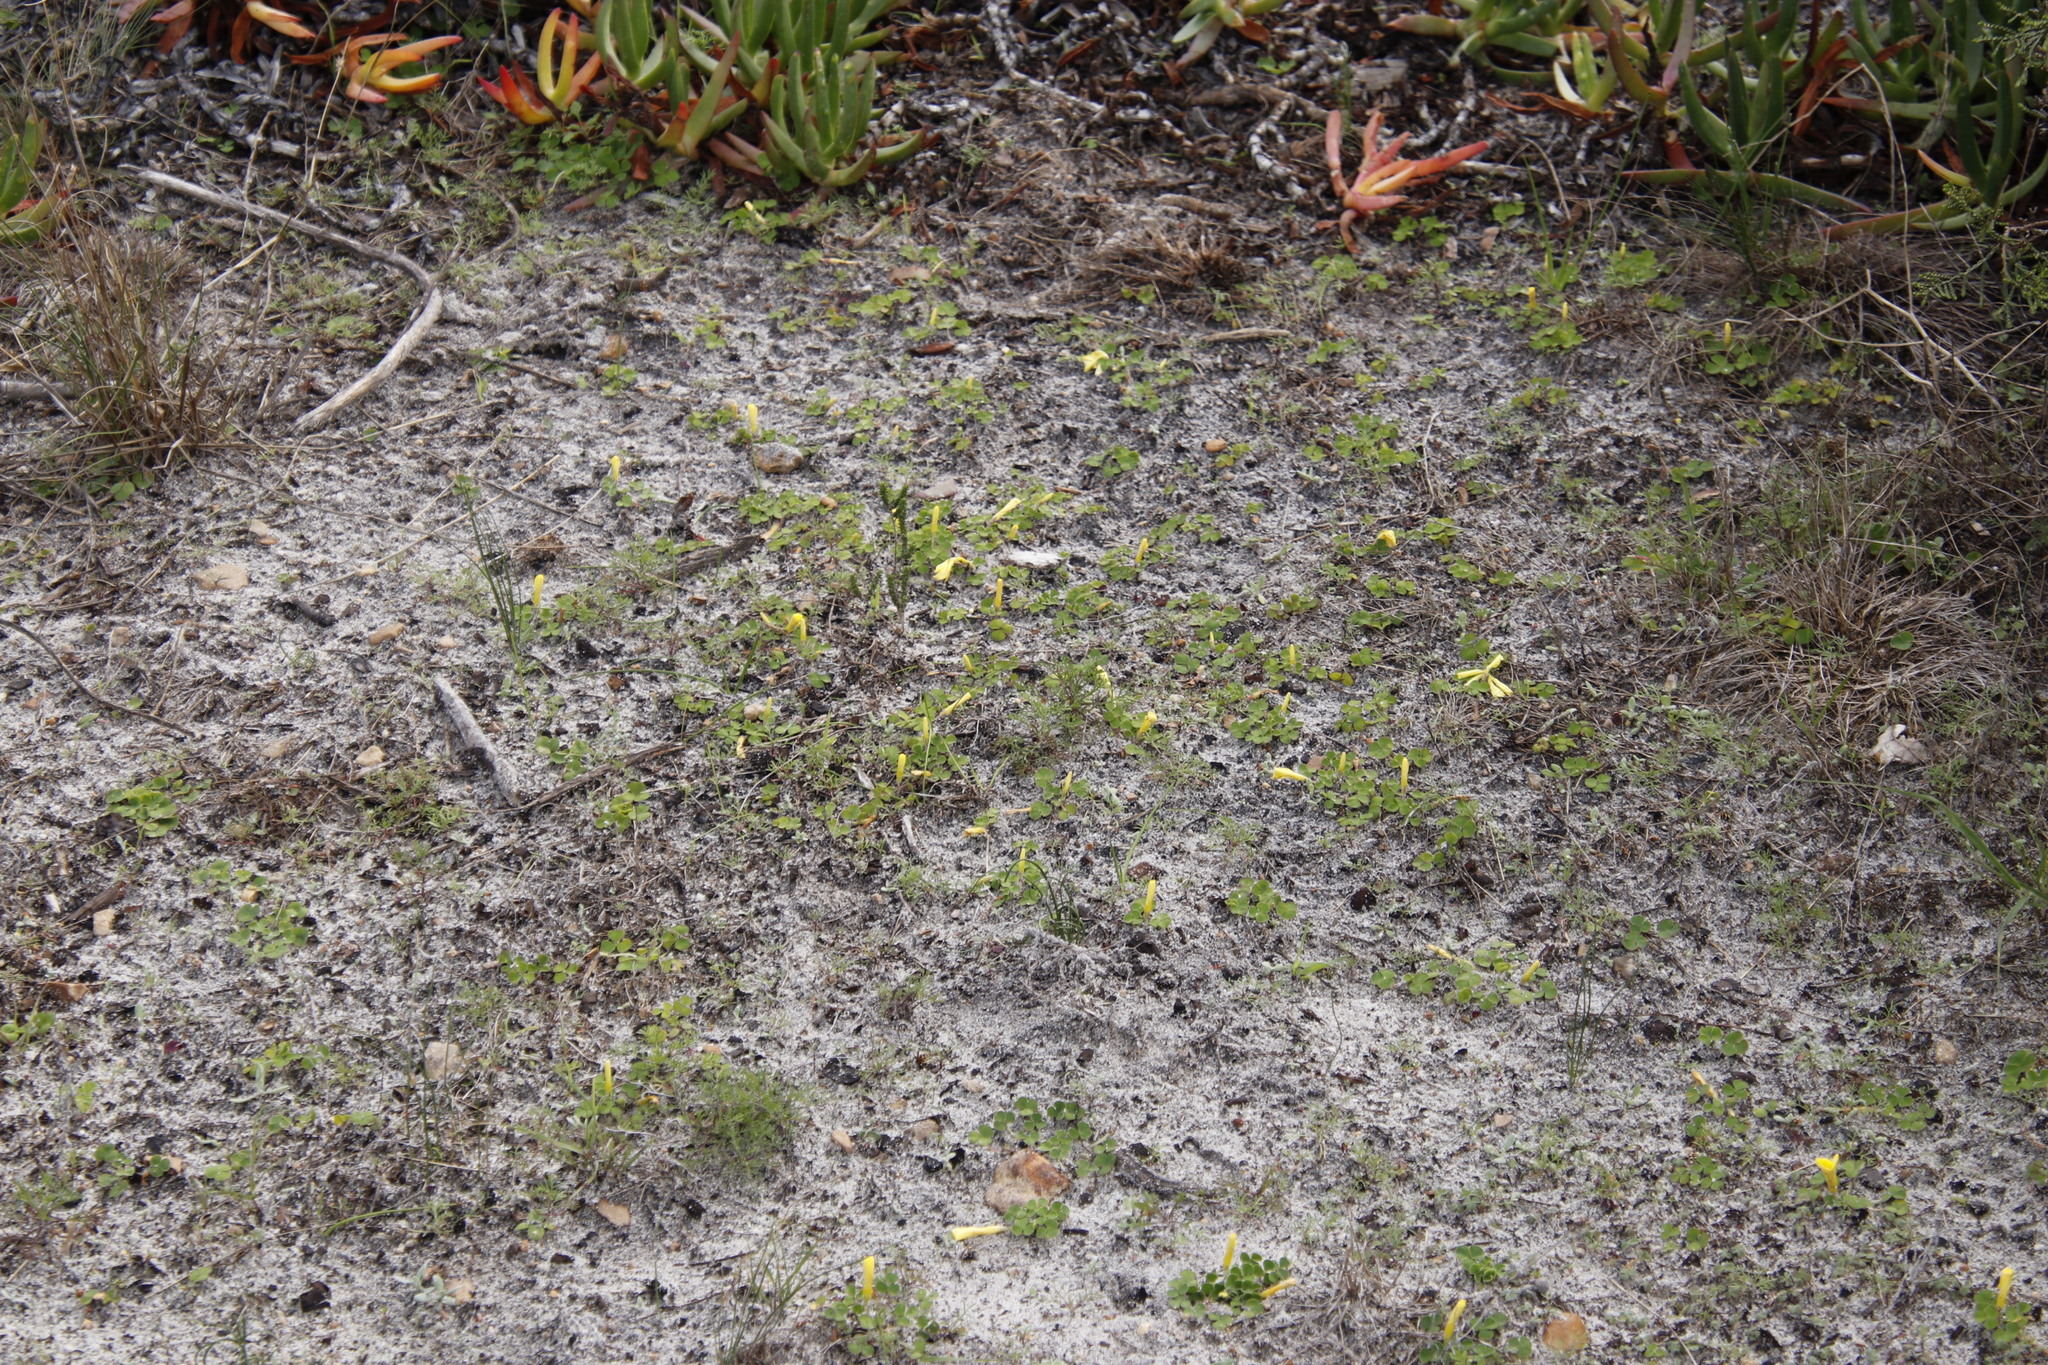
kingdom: Plantae
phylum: Tracheophyta
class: Magnoliopsida
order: Oxalidales
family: Oxalidaceae
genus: Oxalis
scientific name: Oxalis luteola
